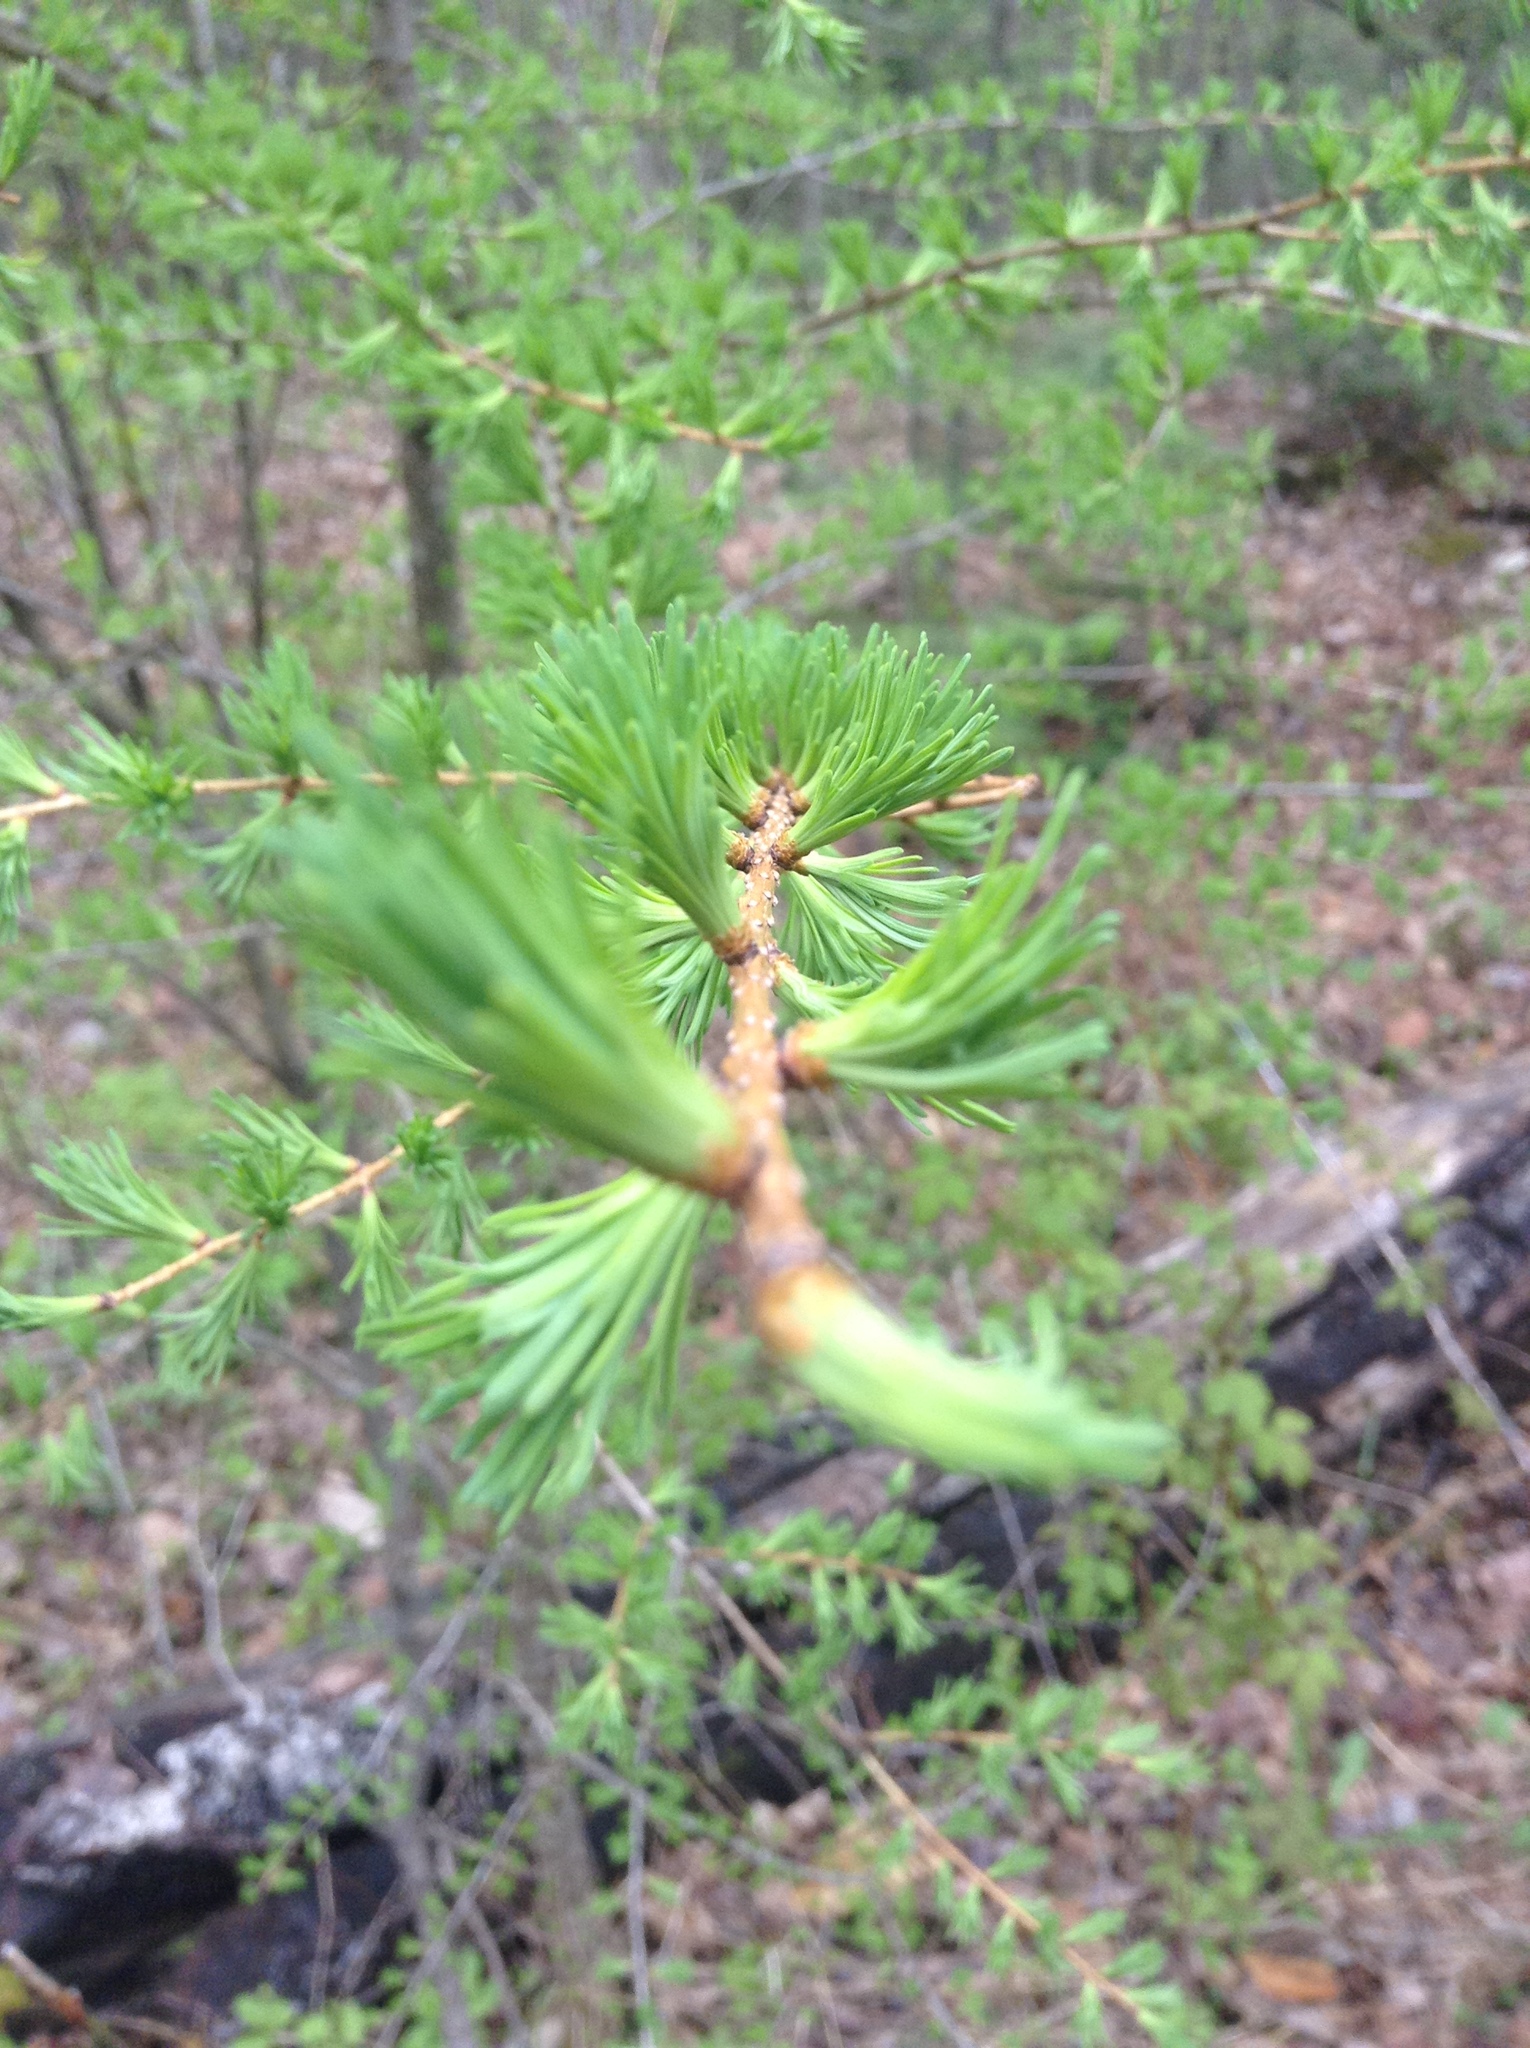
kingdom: Plantae
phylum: Tracheophyta
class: Pinopsida
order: Pinales
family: Pinaceae
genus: Larix
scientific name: Larix laricina
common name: American larch
